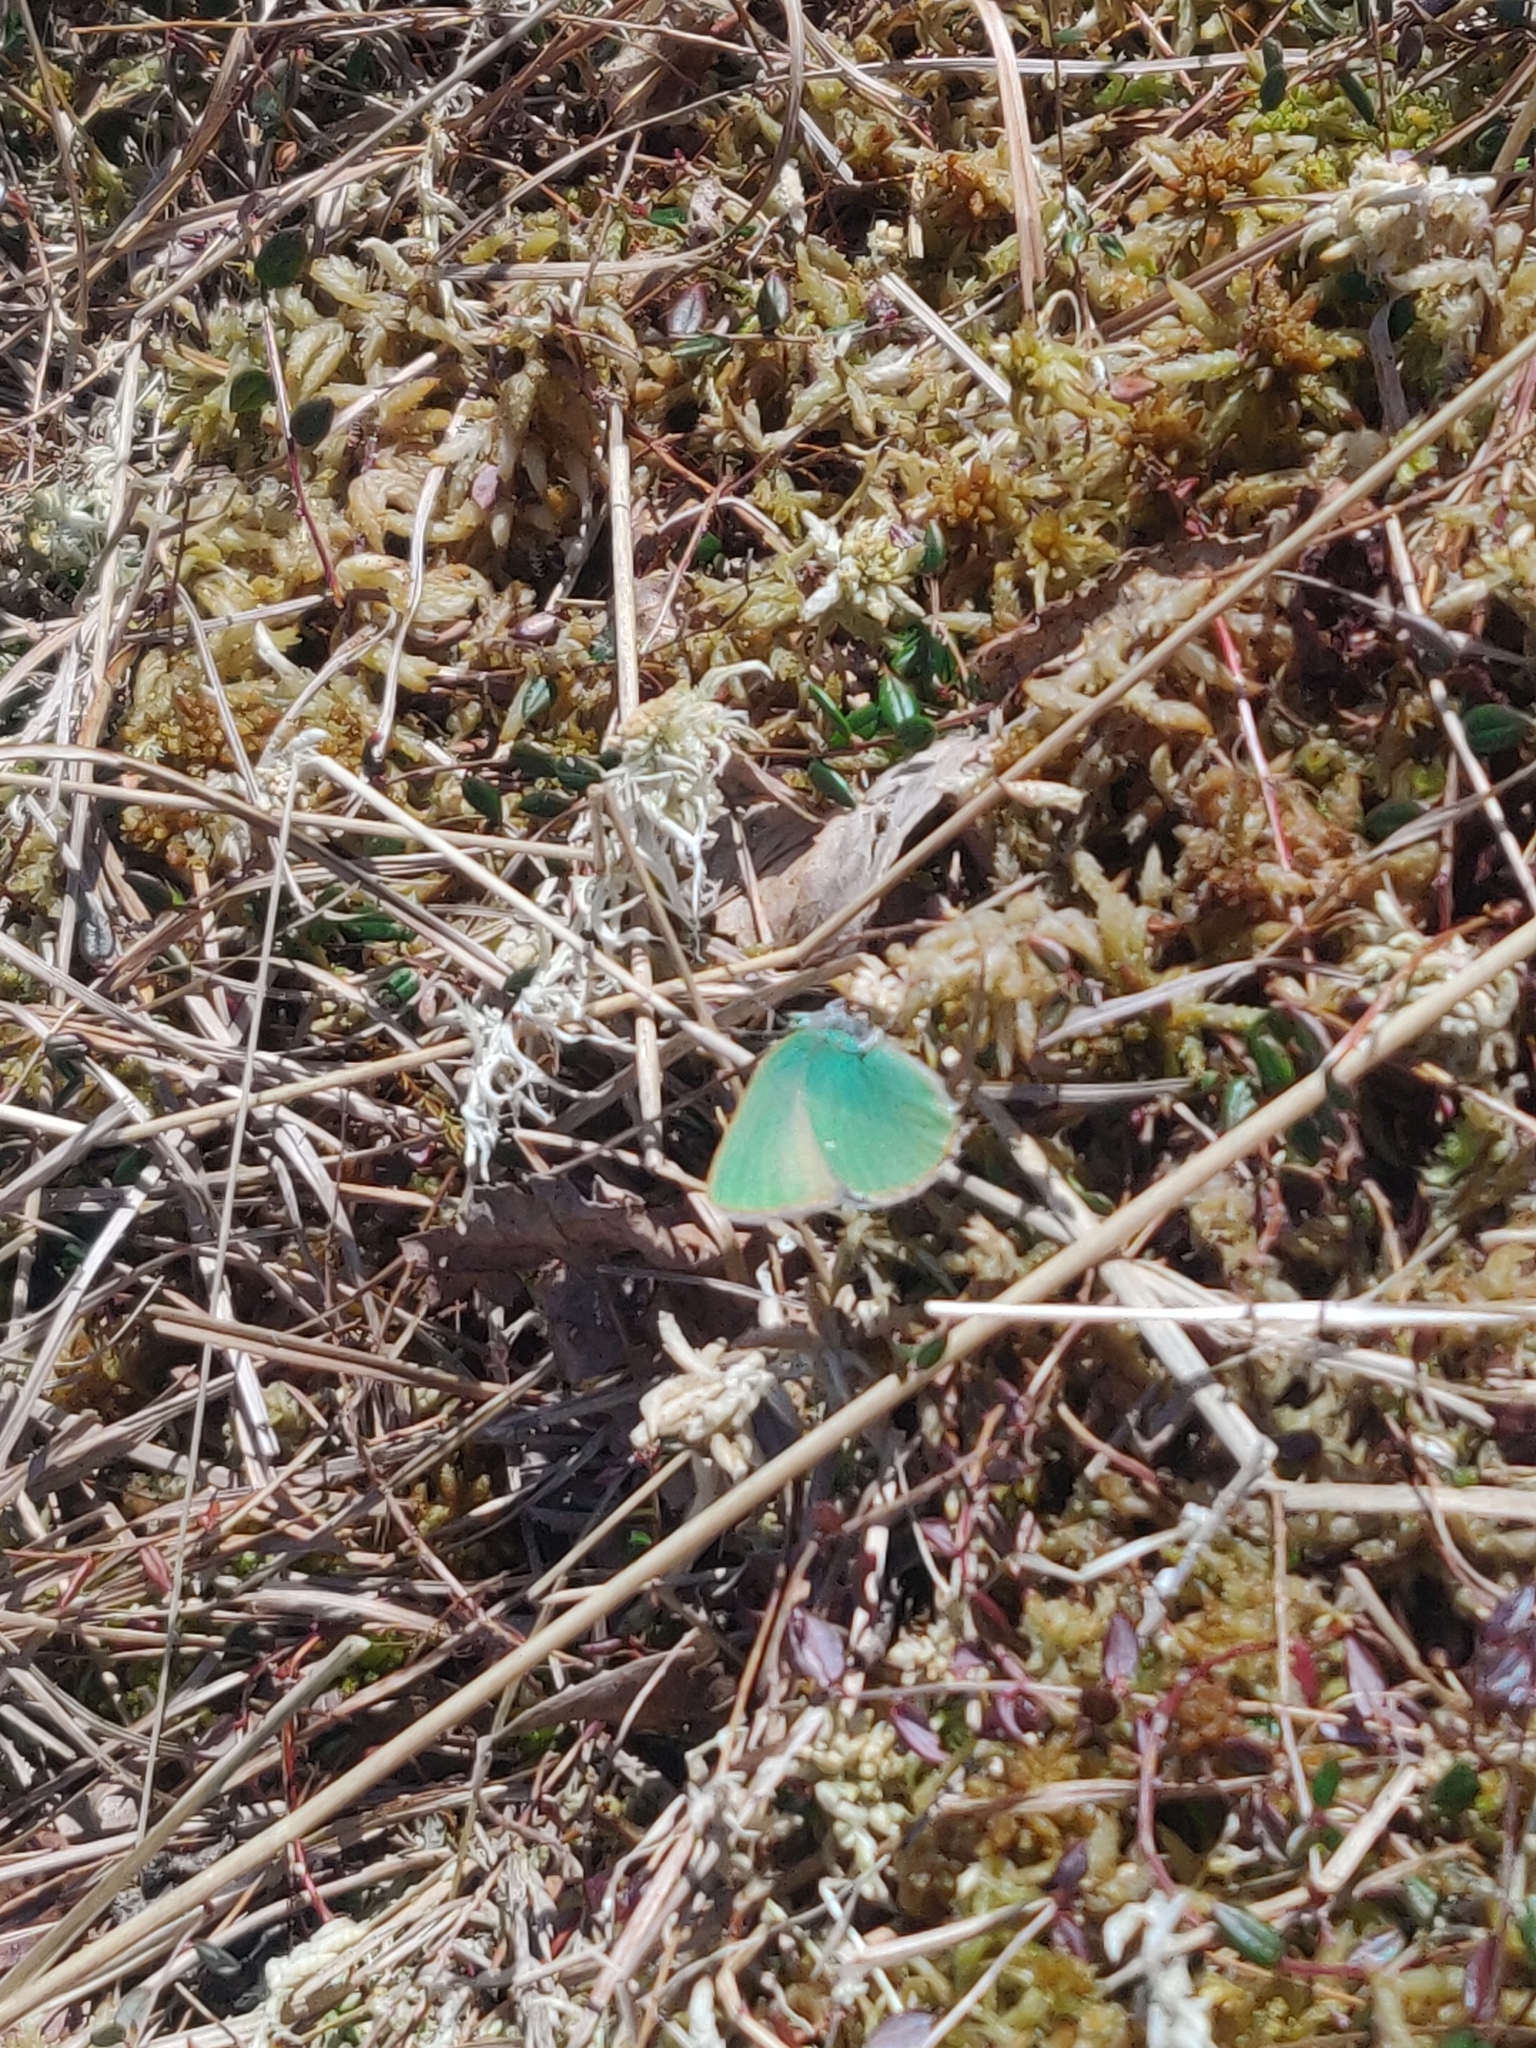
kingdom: Animalia
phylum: Arthropoda
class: Insecta
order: Lepidoptera
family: Lycaenidae
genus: Callophrys
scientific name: Callophrys rubi
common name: Green hairstreak
